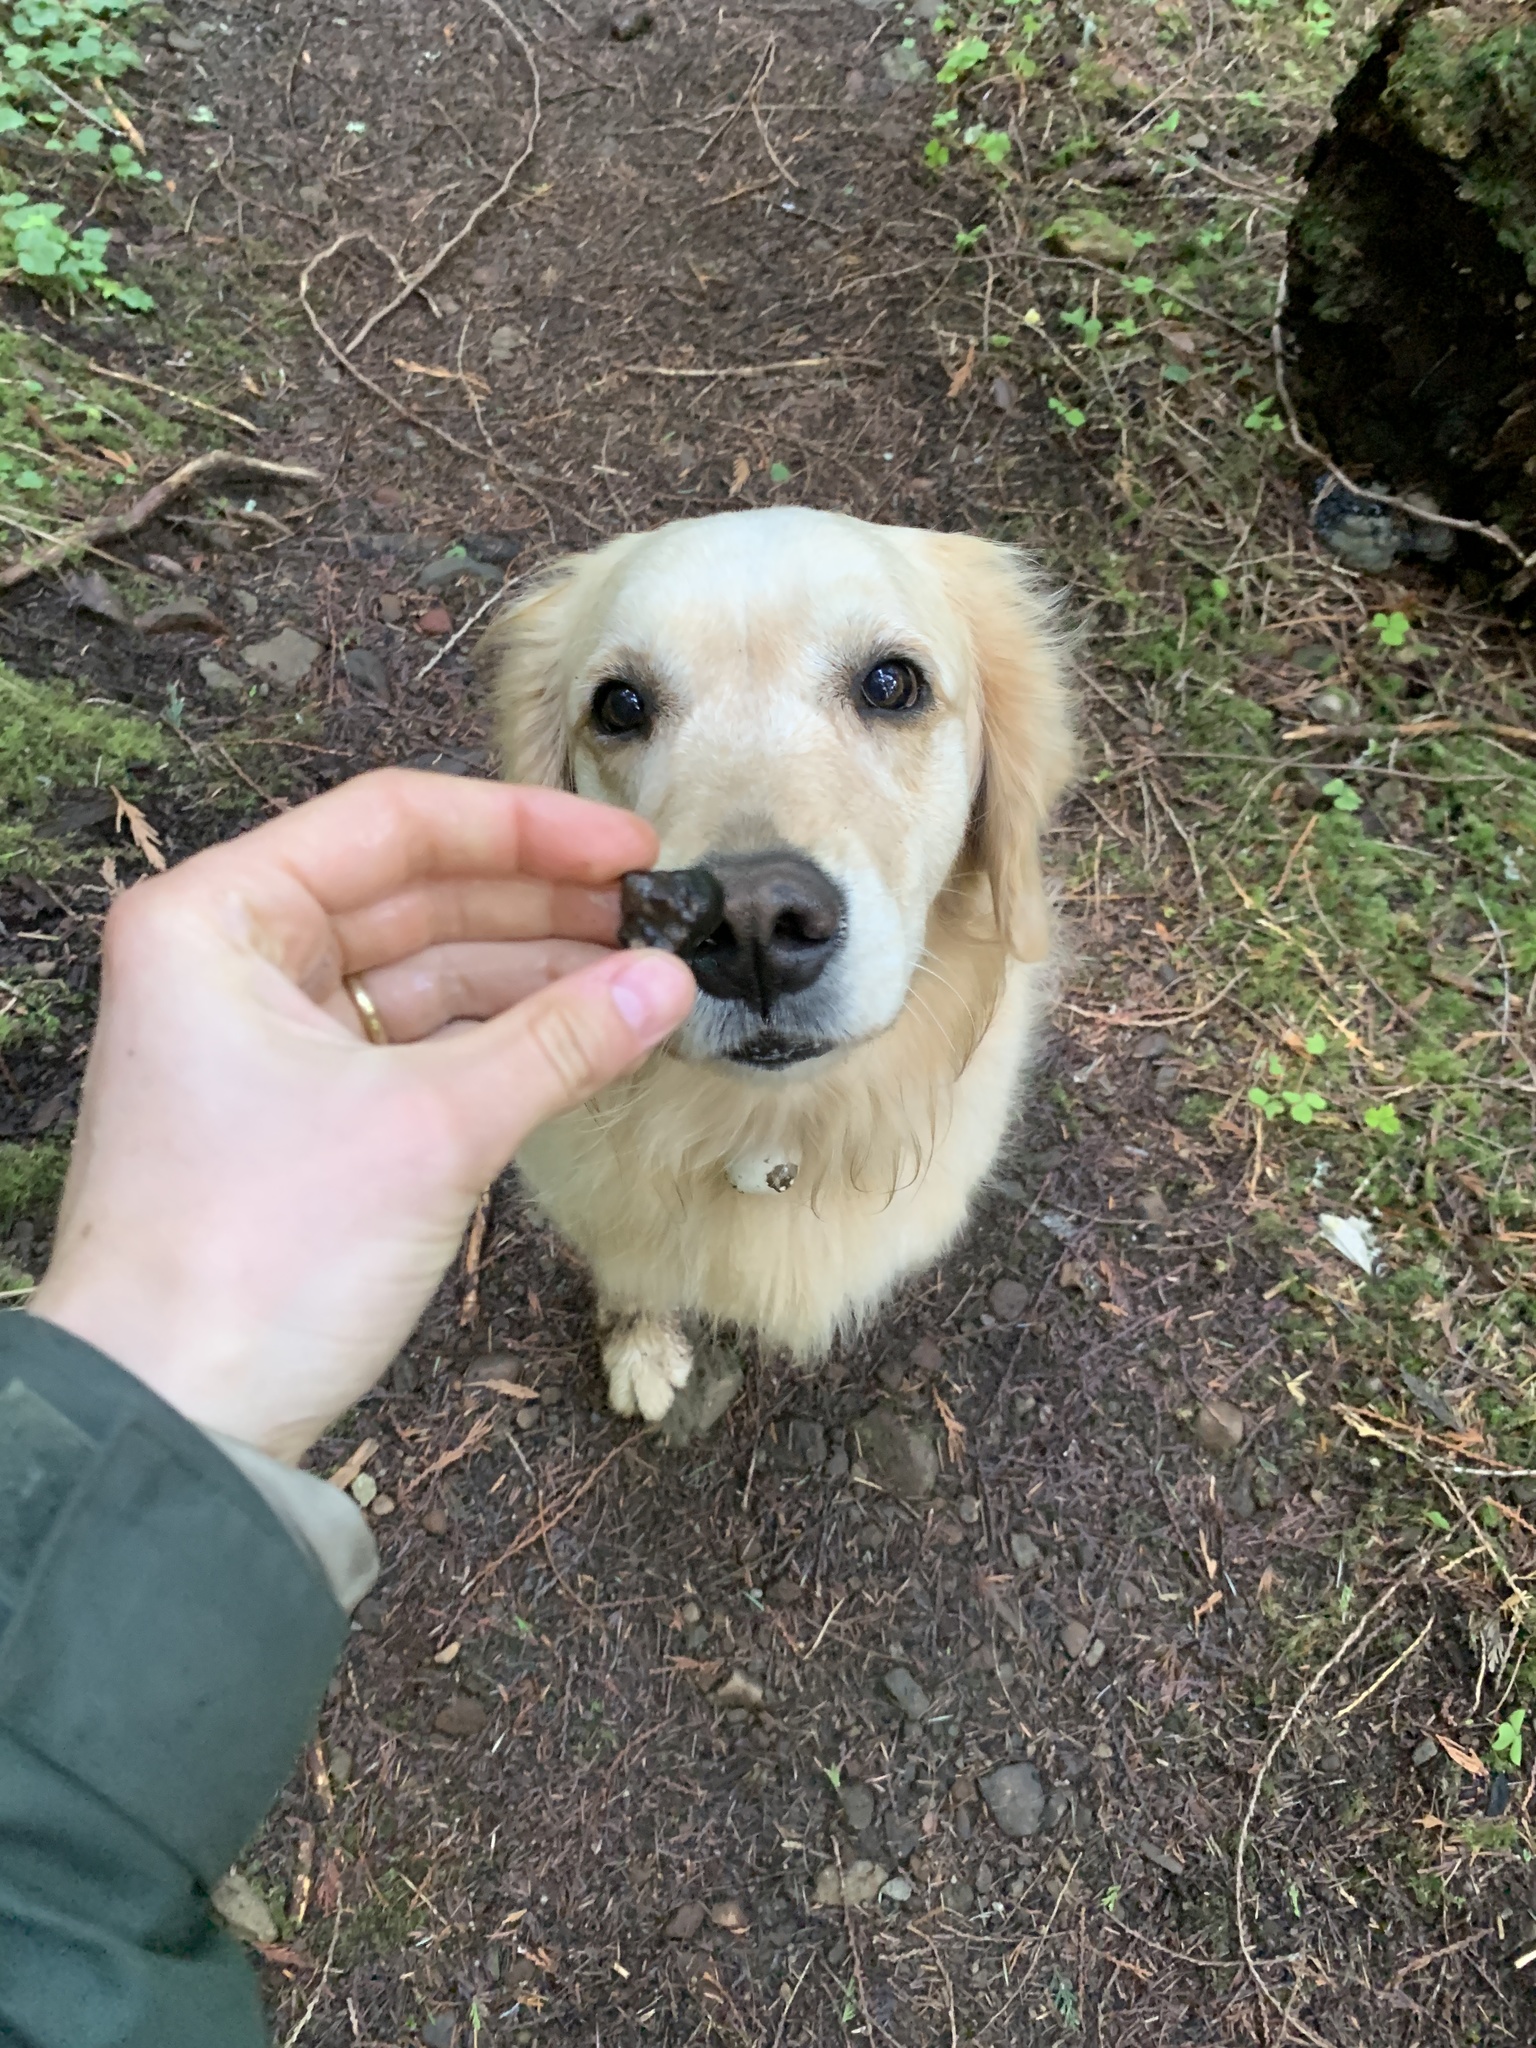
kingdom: Fungi
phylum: Ascomycota
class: Pezizomycetes
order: Pezizales
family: Morchellaceae
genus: Leucangium
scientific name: Leucangium carthusianum
